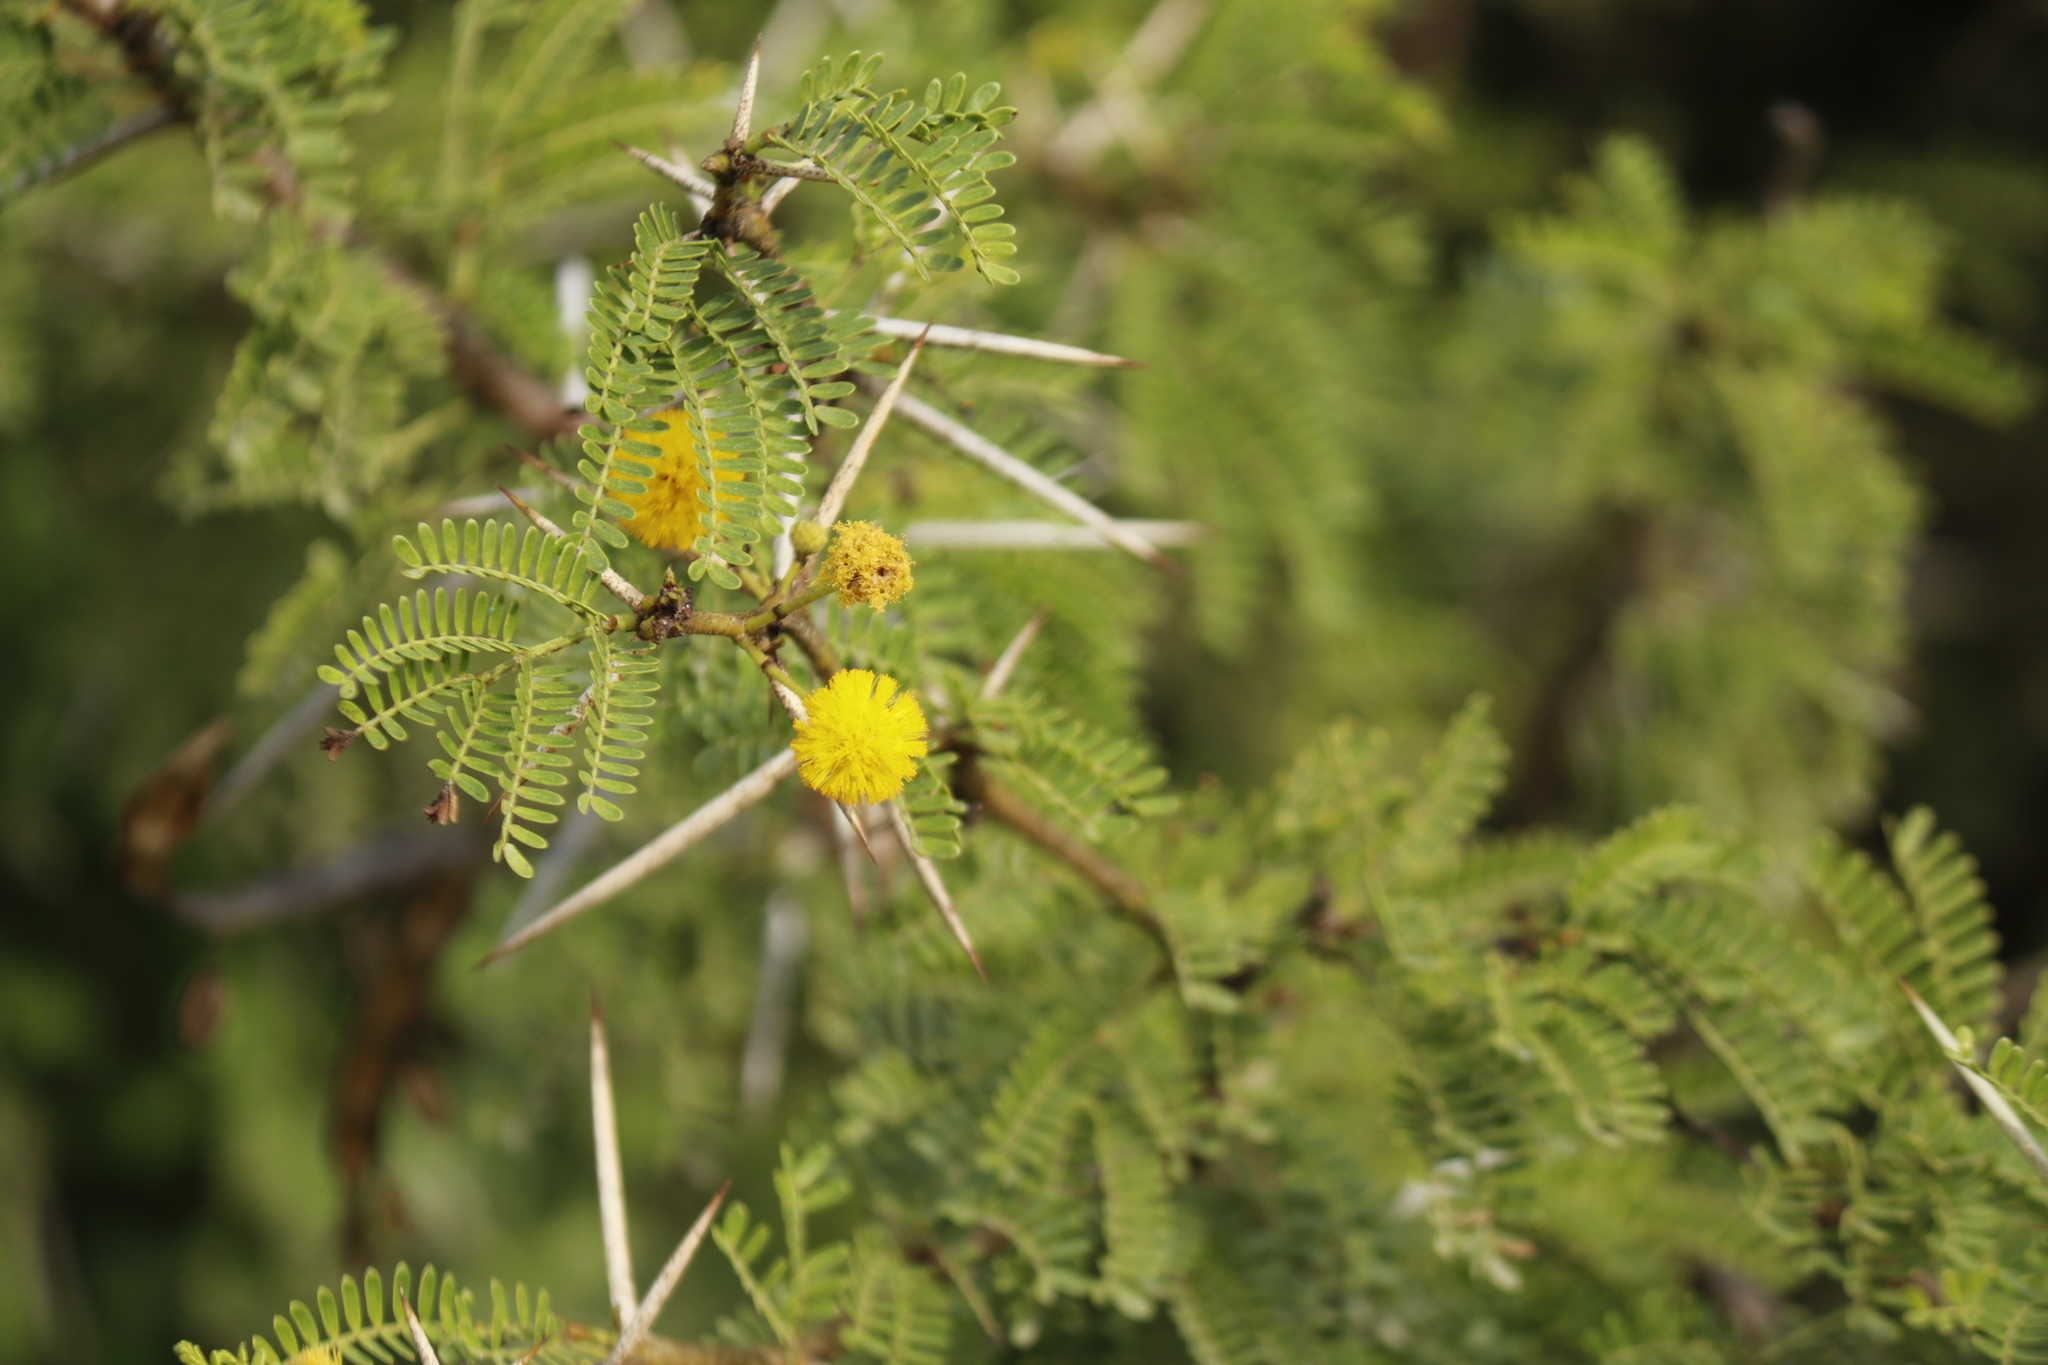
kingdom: Plantae
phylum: Tracheophyta
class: Magnoliopsida
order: Fabales
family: Fabaceae
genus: Vachellia
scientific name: Vachellia karroo
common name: Sweet thorn
